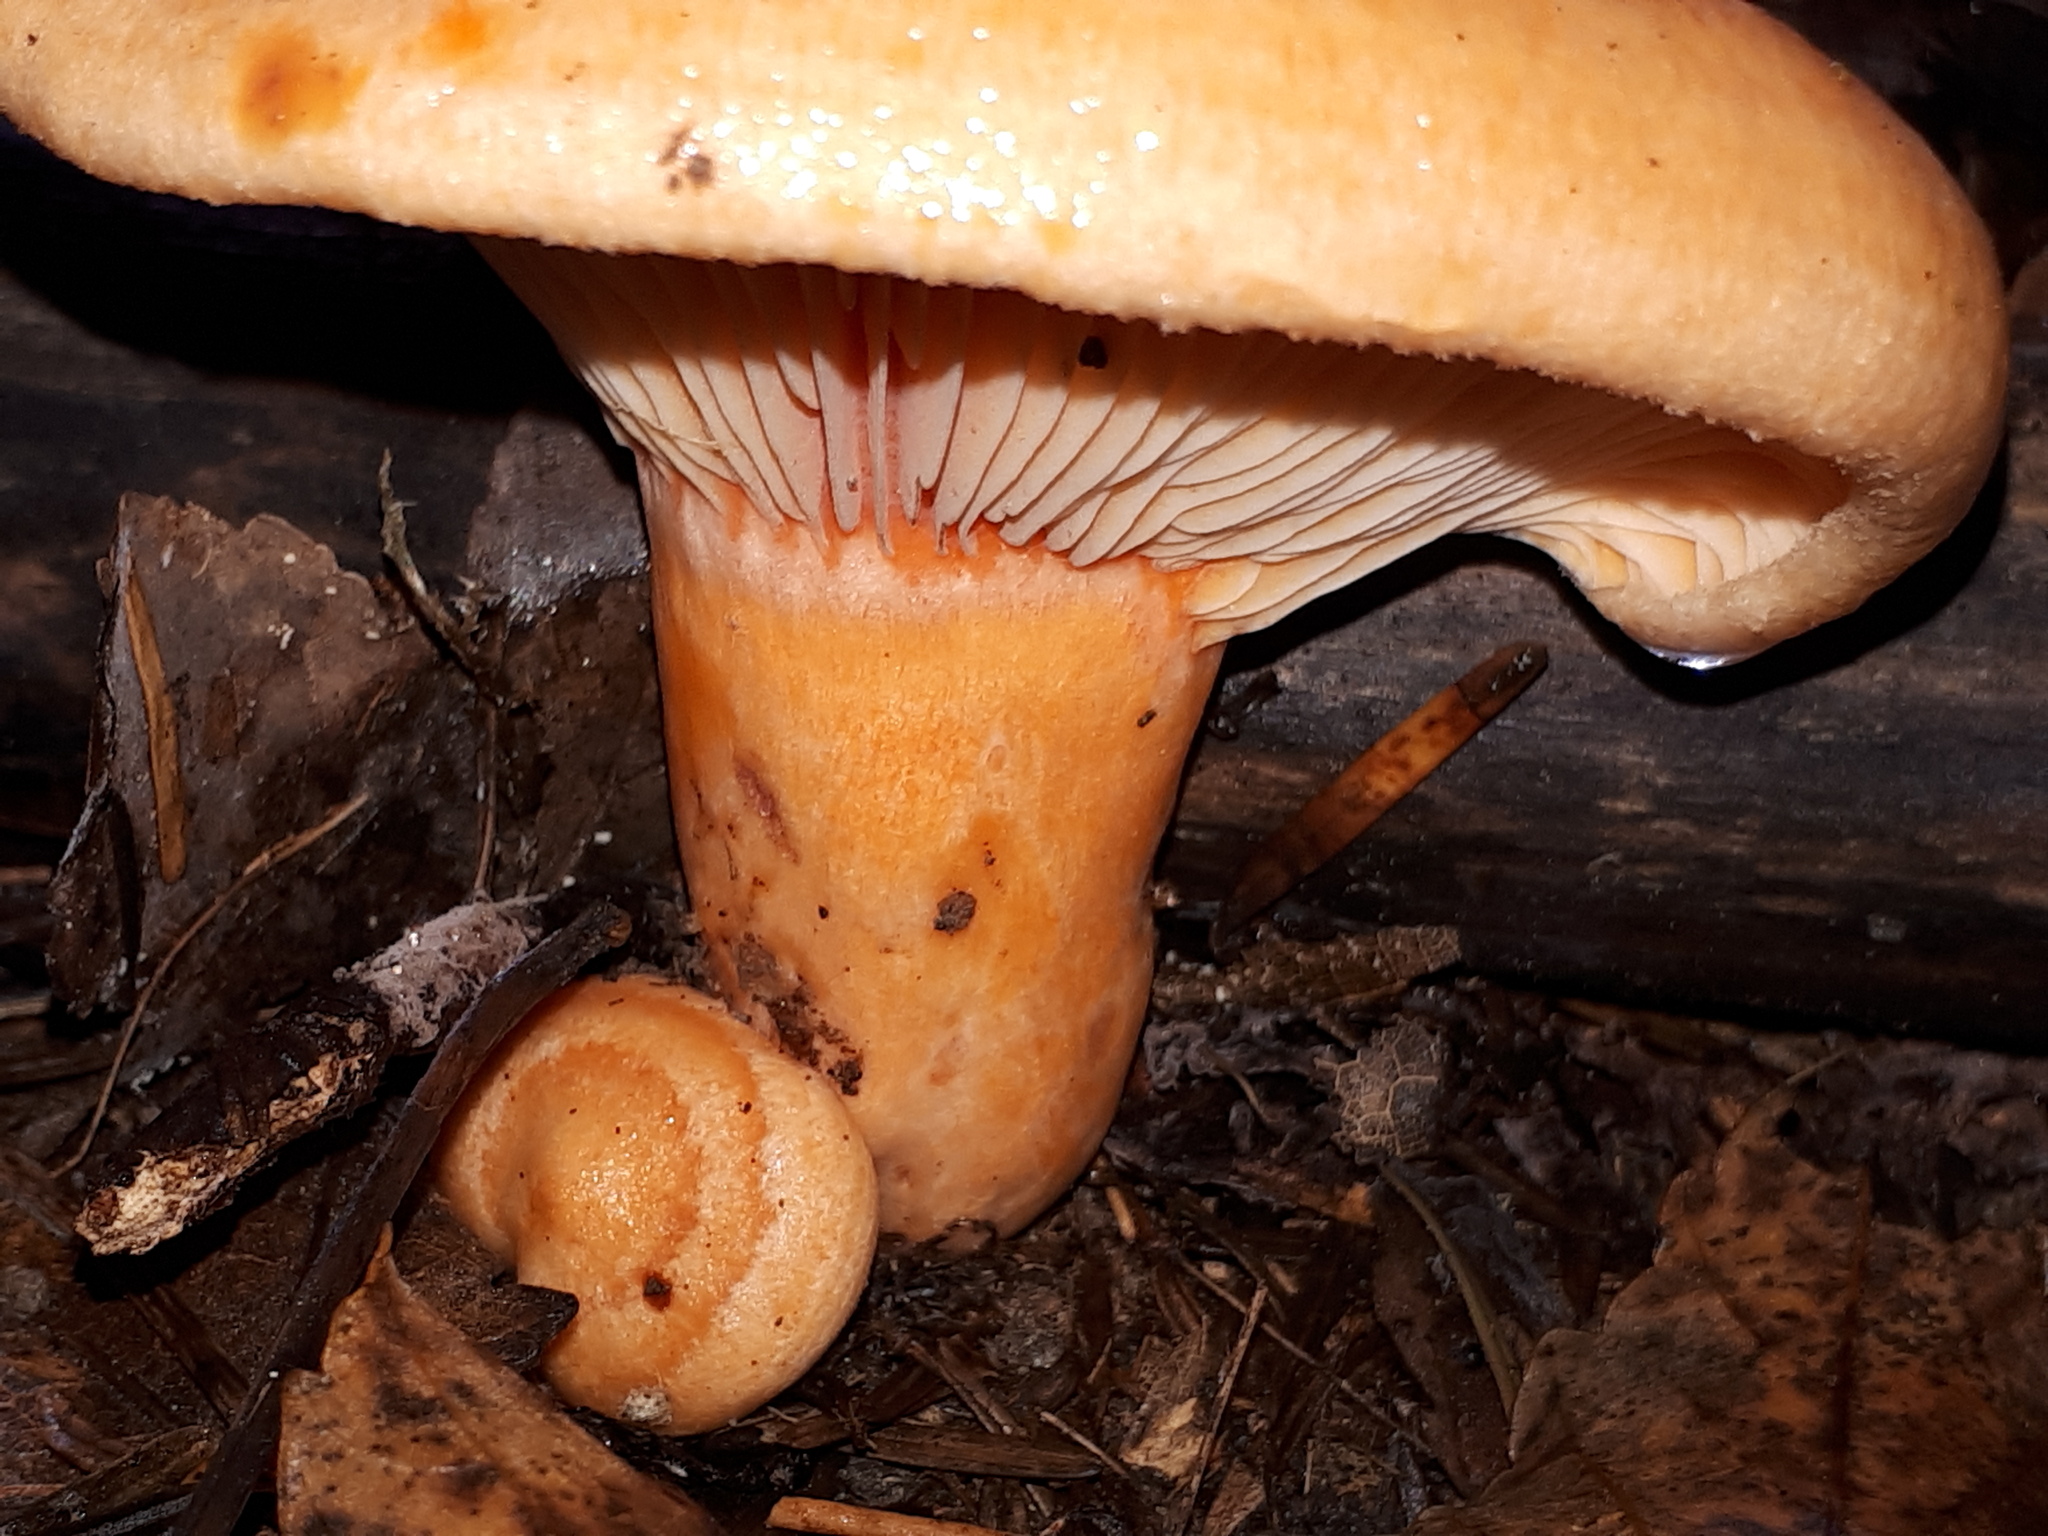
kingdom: Fungi
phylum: Basidiomycota
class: Agaricomycetes
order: Russulales
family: Russulaceae
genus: Lactarius
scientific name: Lactarius salmonicolor
